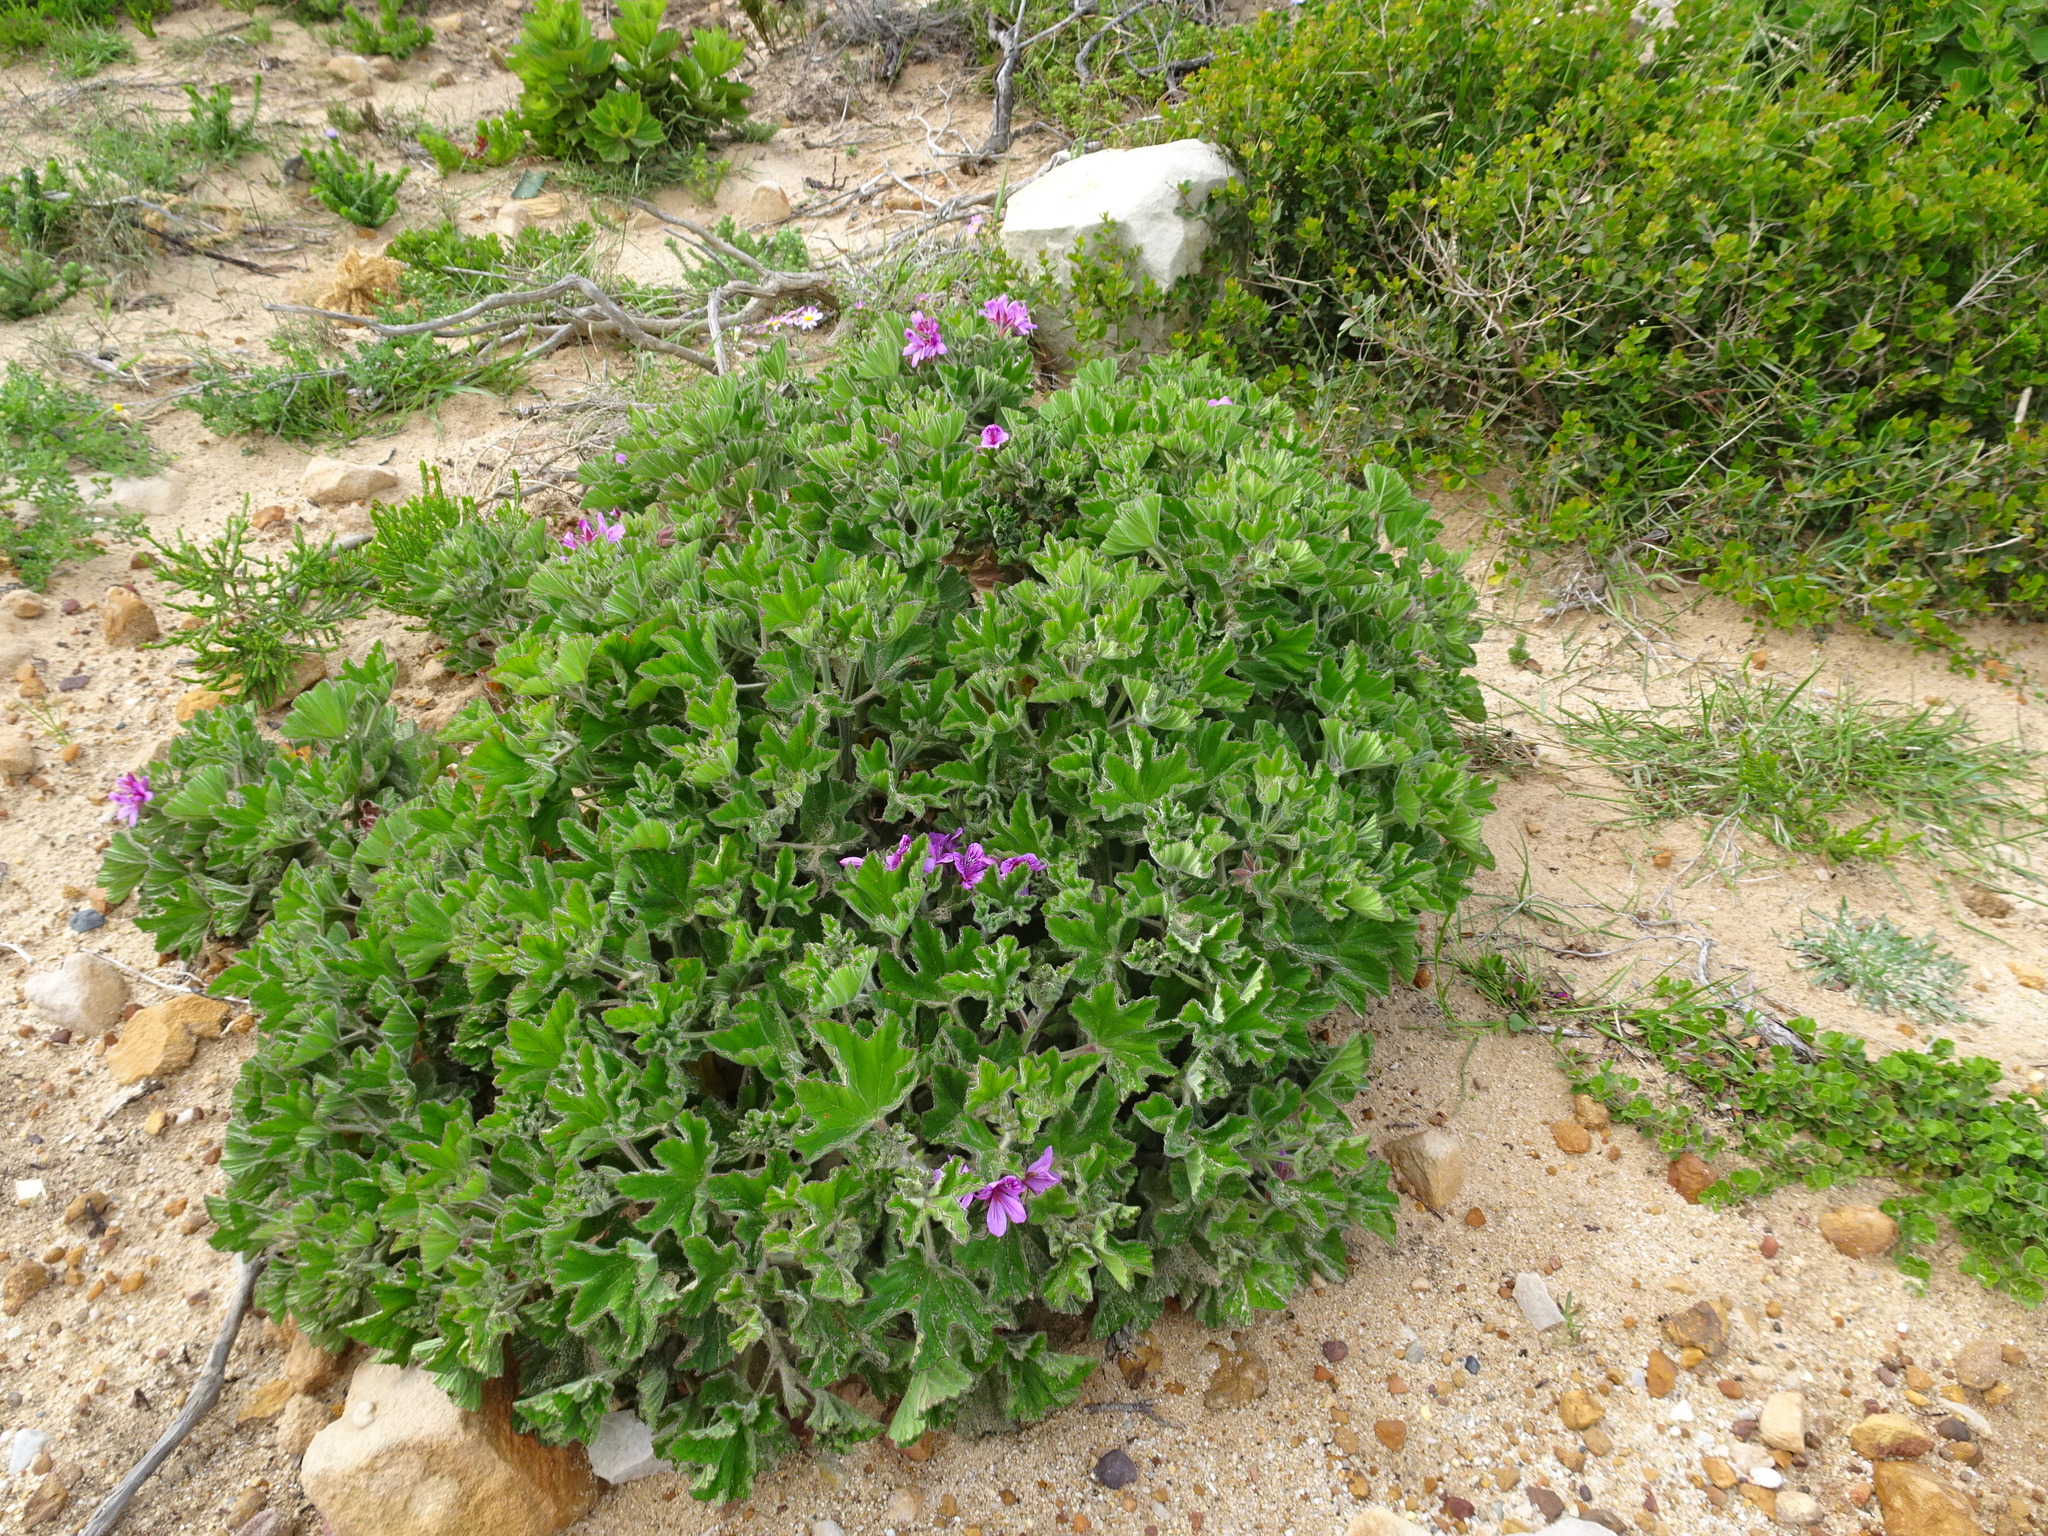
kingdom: Plantae
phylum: Tracheophyta
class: Magnoliopsida
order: Geraniales
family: Geraniaceae
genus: Pelargonium
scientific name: Pelargonium cucullatum
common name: Tree pelargonium
